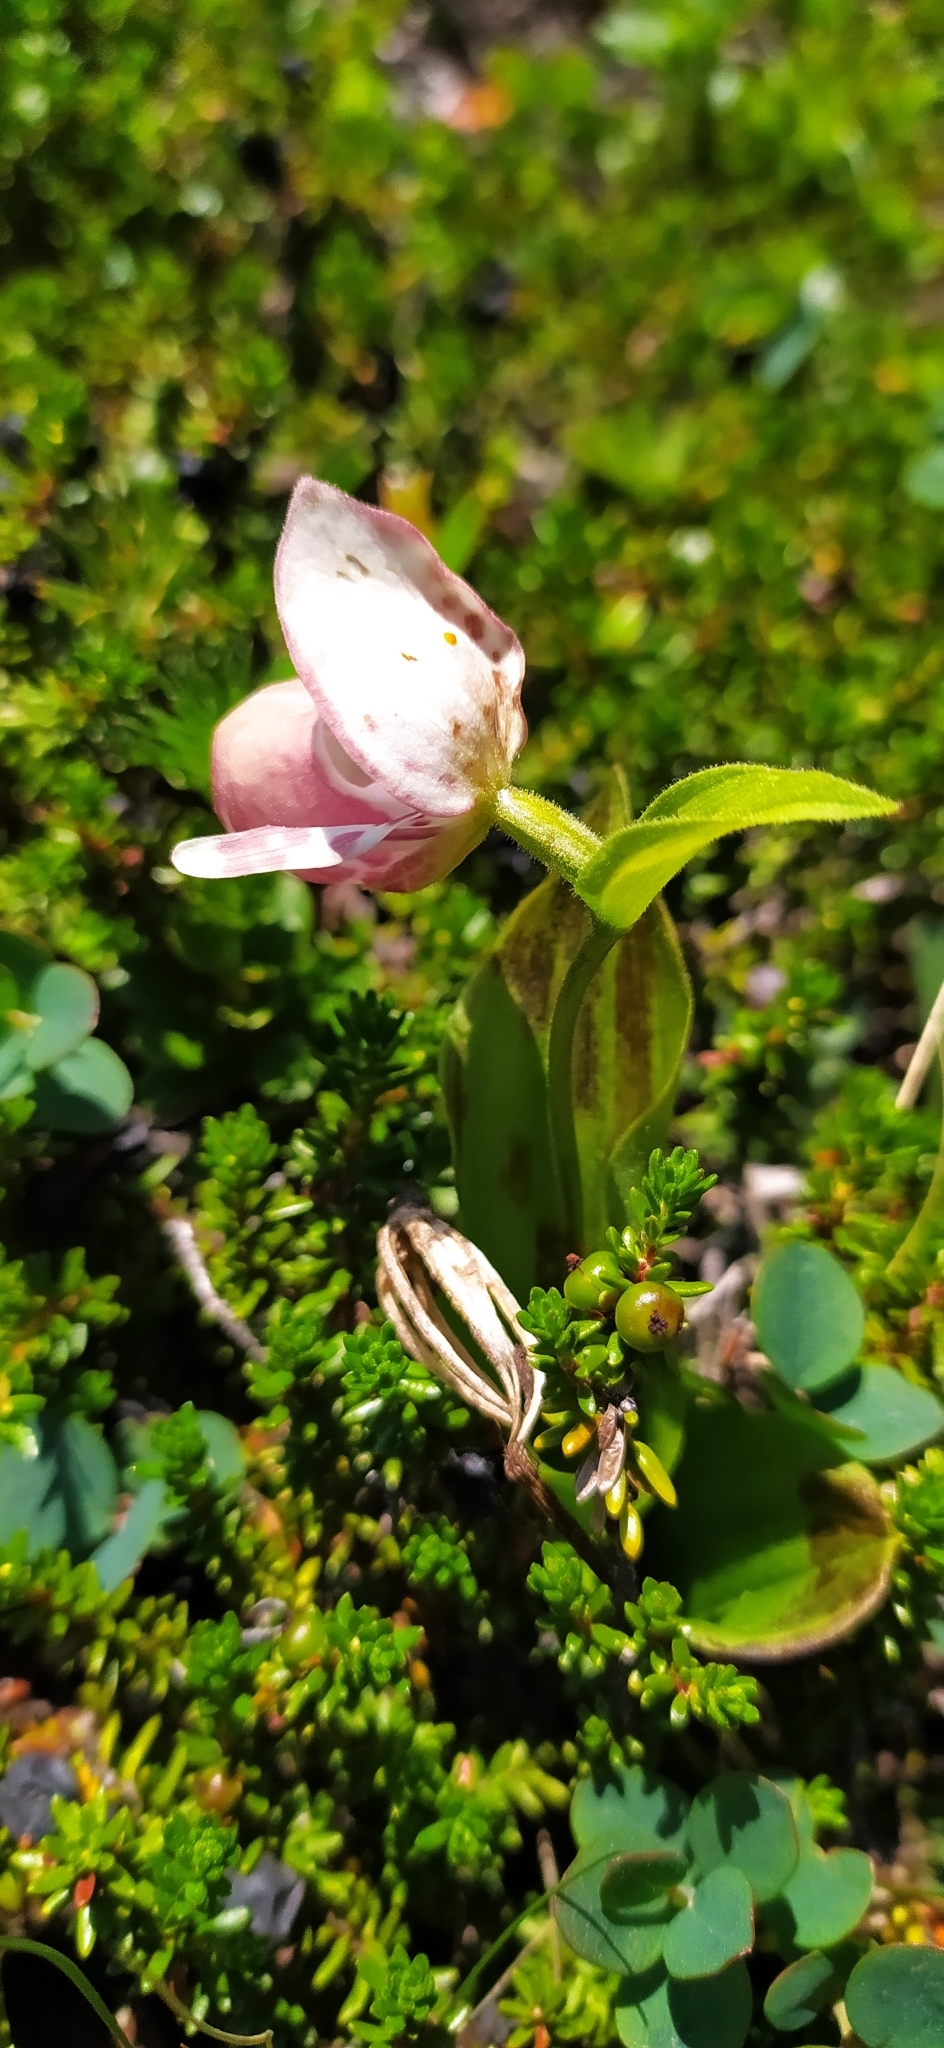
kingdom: Plantae
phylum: Tracheophyta
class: Liliopsida
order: Asparagales
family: Orchidaceae
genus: Cypripedium
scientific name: Cypripedium guttatum
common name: Pink lady slipper
